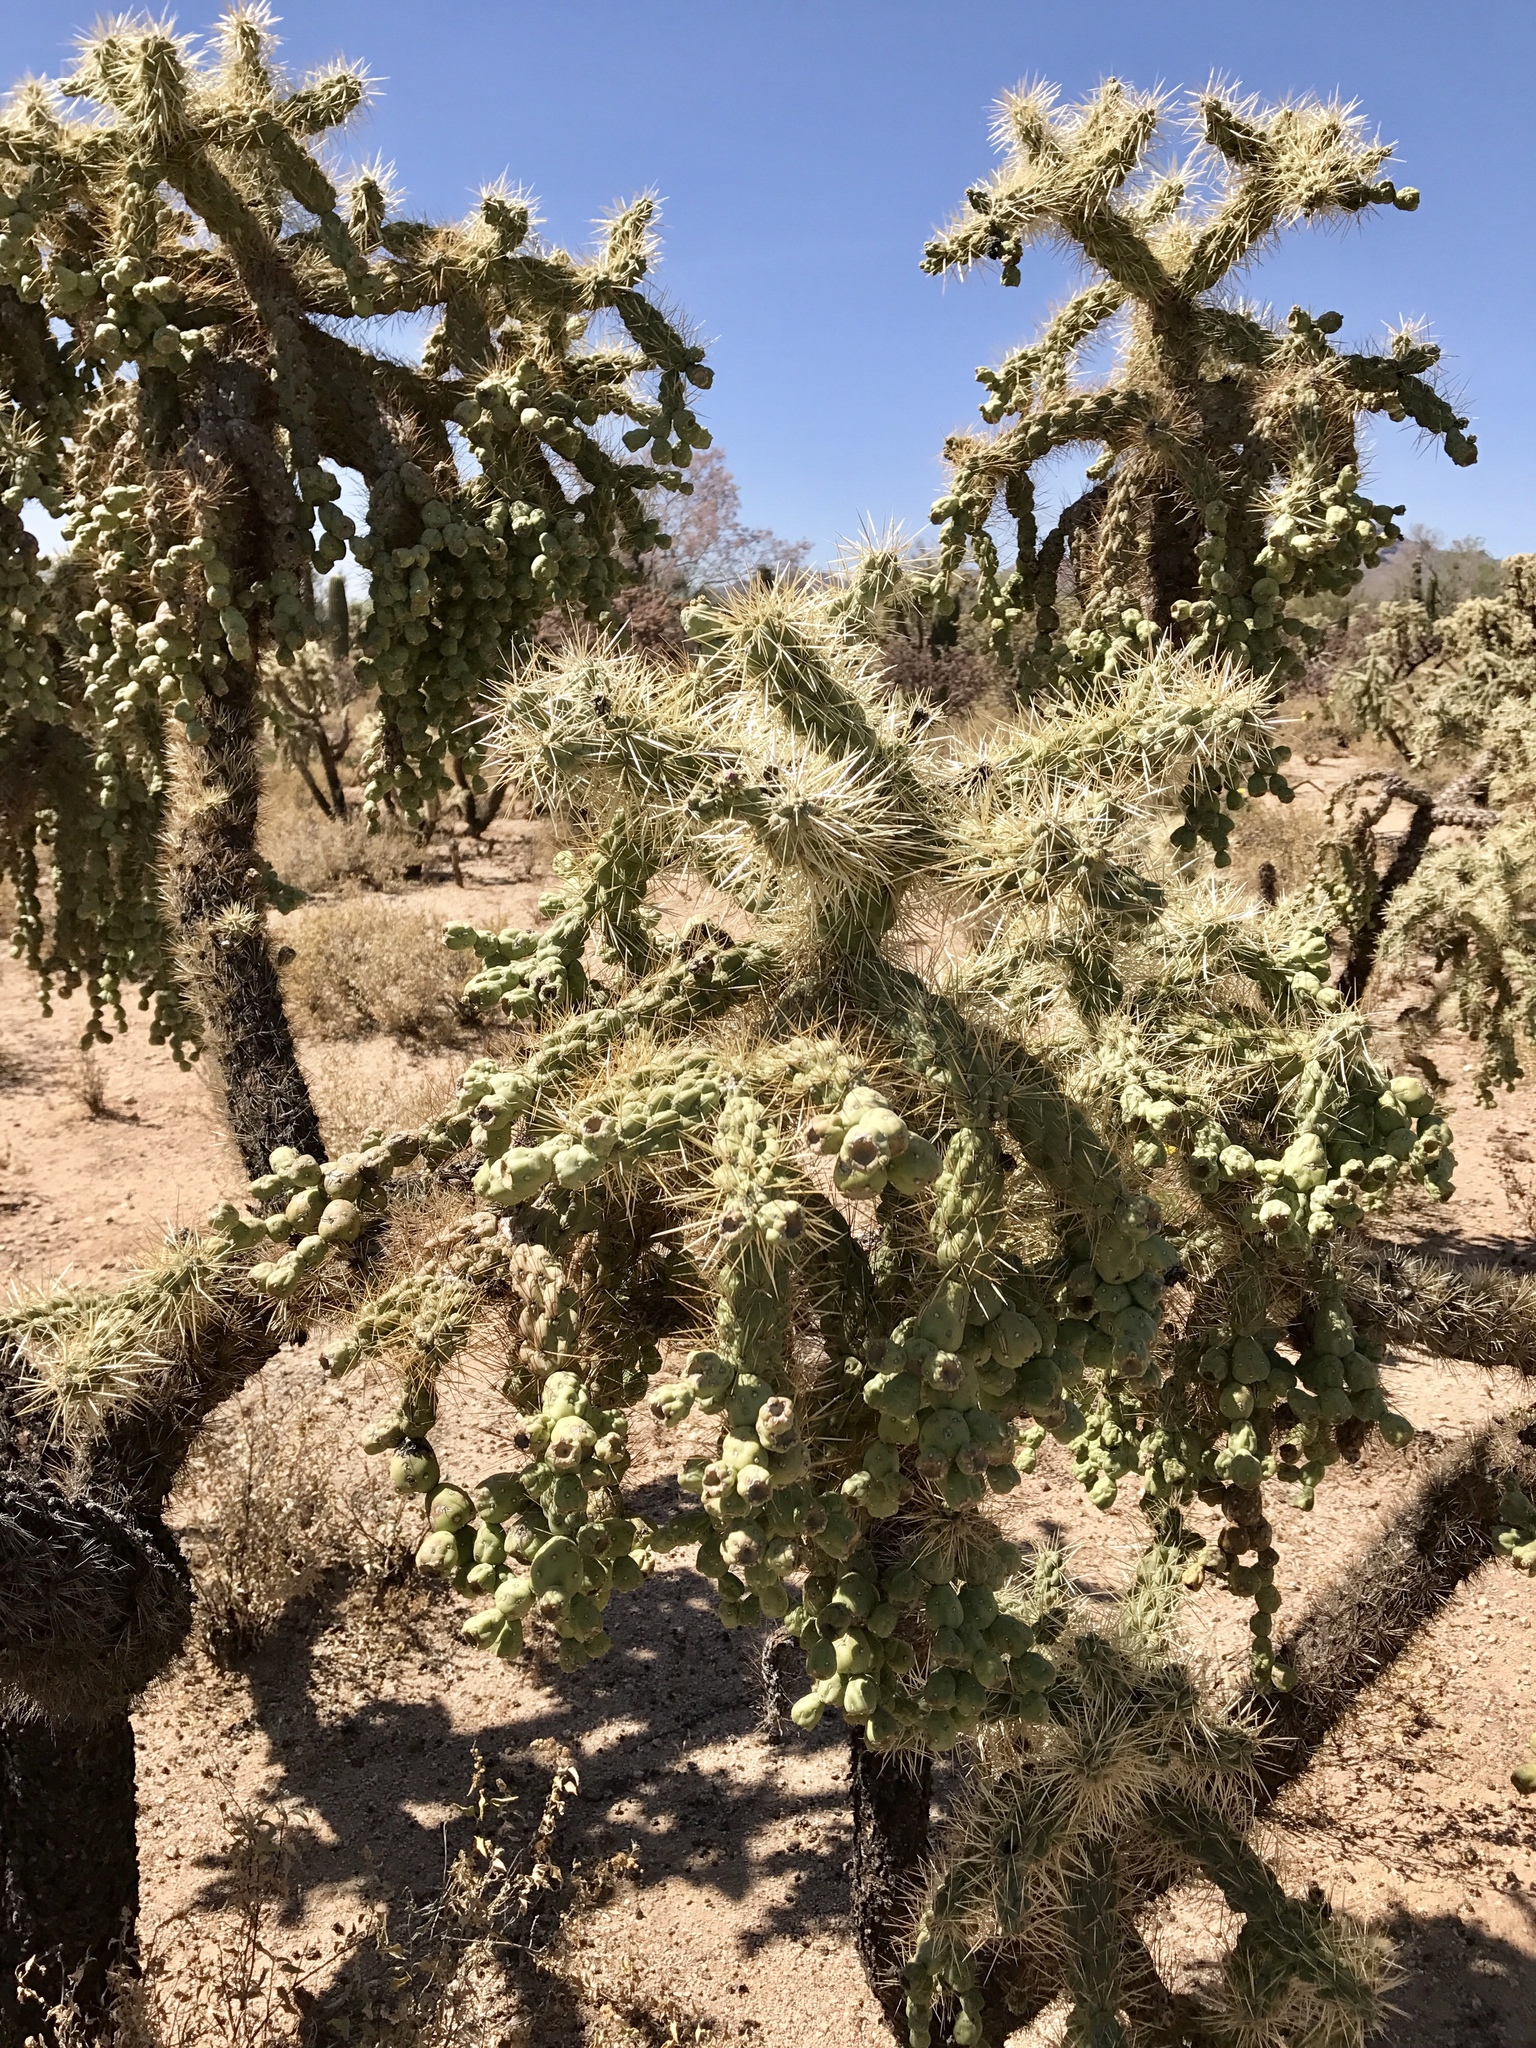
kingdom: Plantae
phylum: Tracheophyta
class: Magnoliopsida
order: Caryophyllales
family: Cactaceae
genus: Cylindropuntia
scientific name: Cylindropuntia fulgida
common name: Jumping cholla
